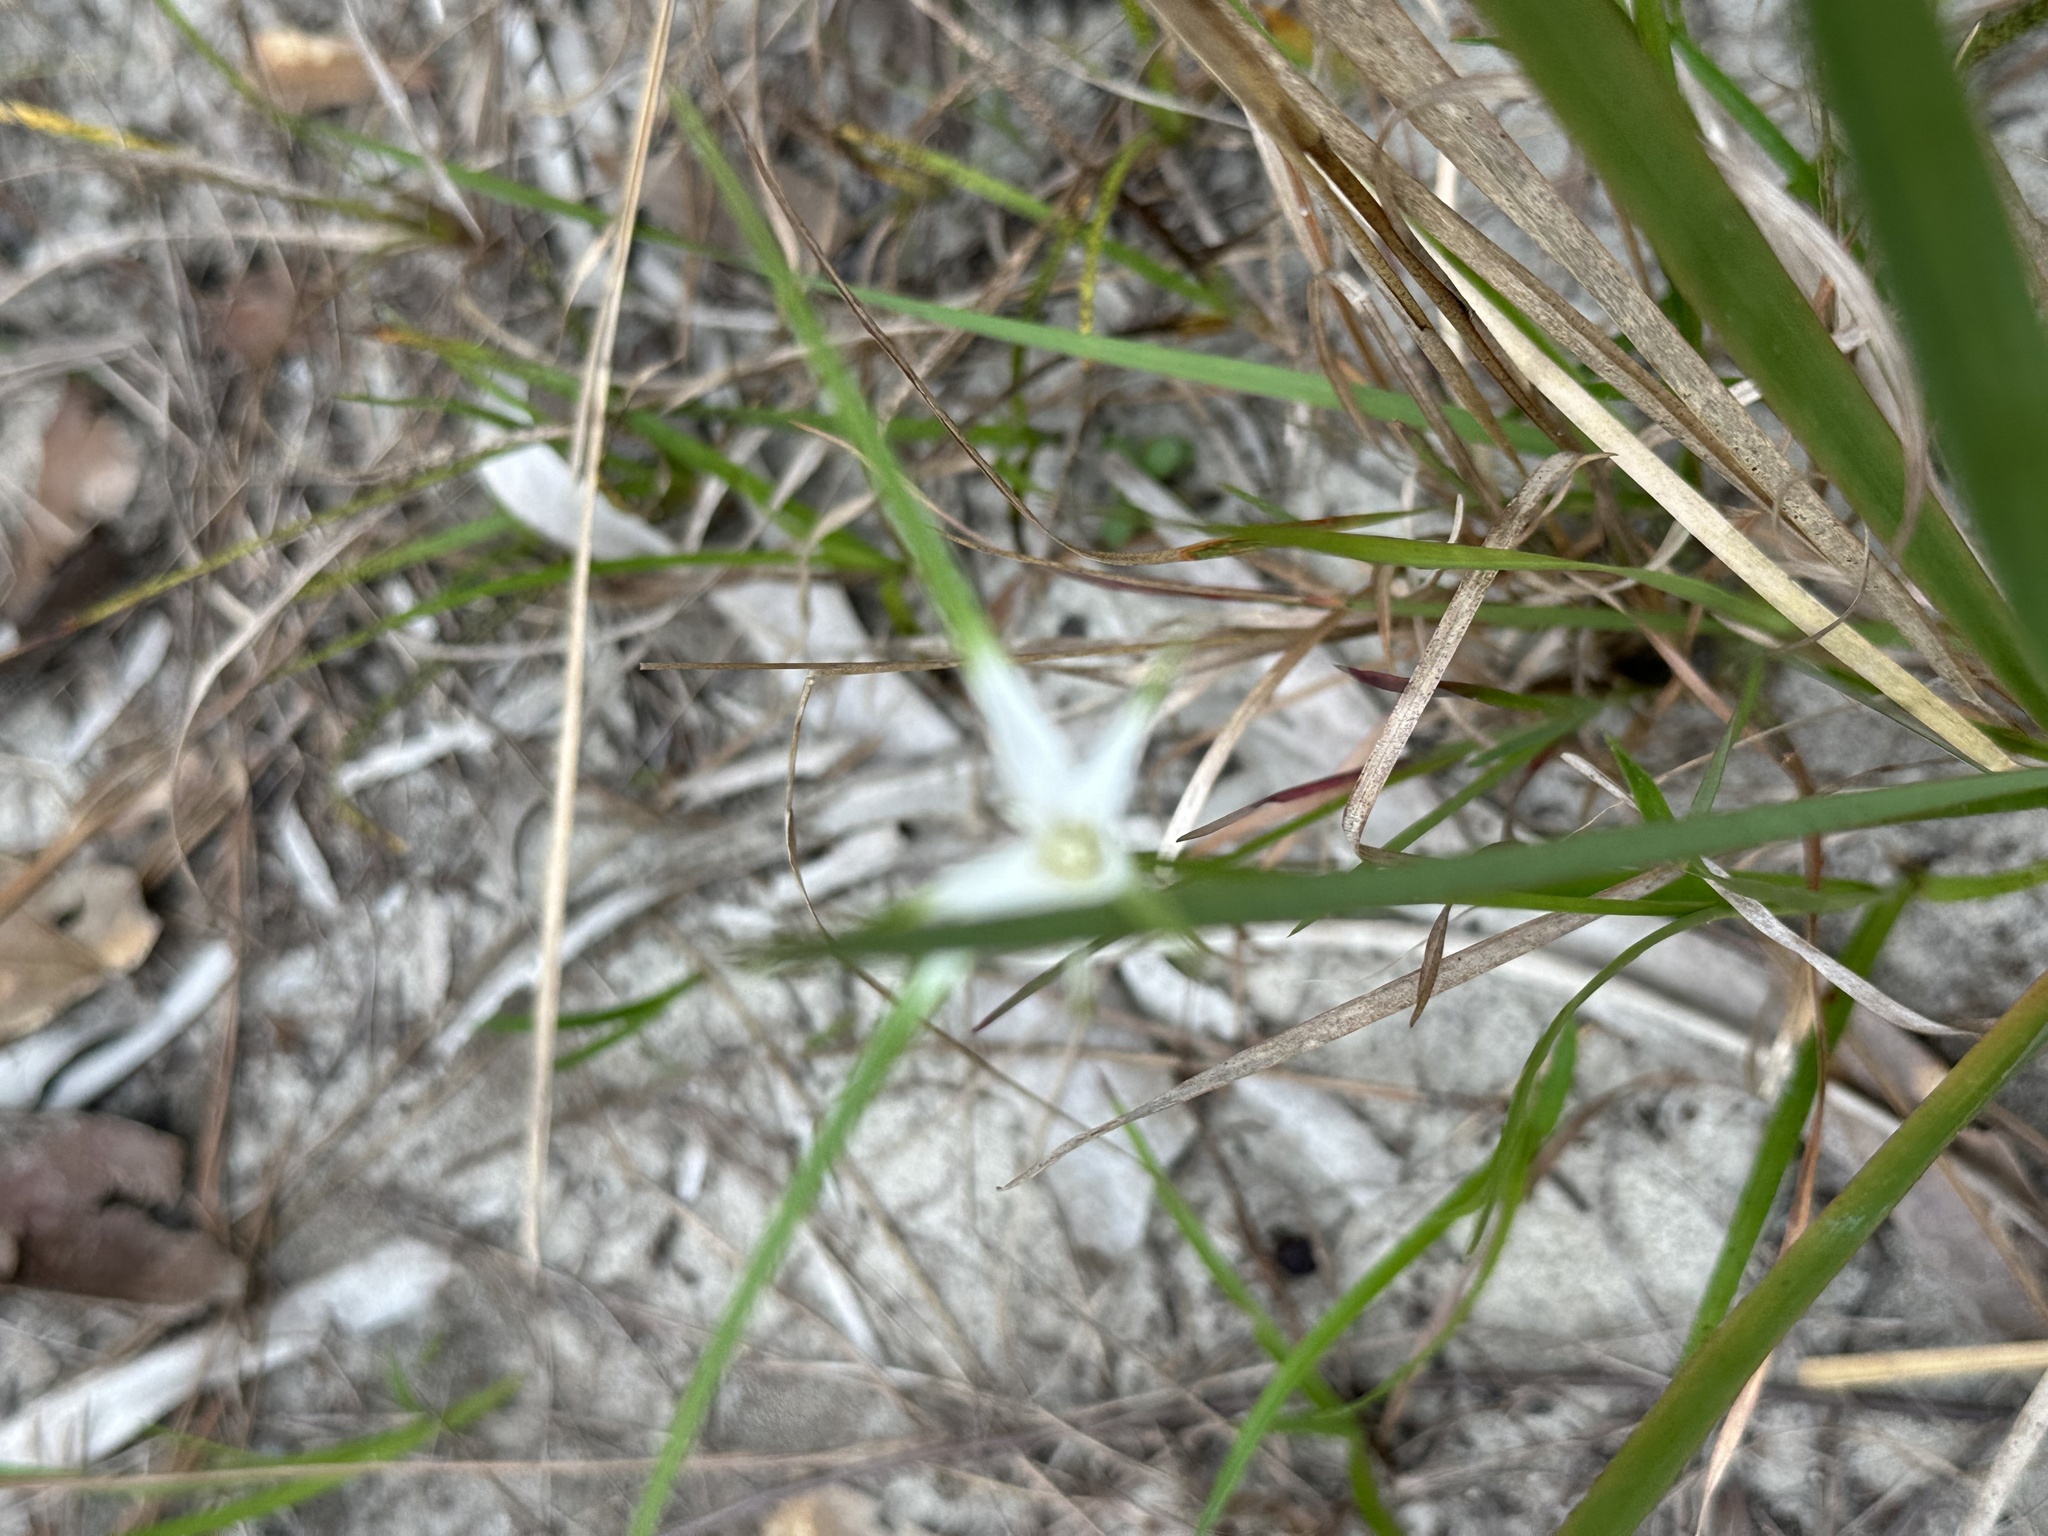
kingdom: Plantae
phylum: Tracheophyta
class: Liliopsida
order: Poales
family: Cyperaceae
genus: Rhynchospora
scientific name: Rhynchospora colorata
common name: Star sedge
